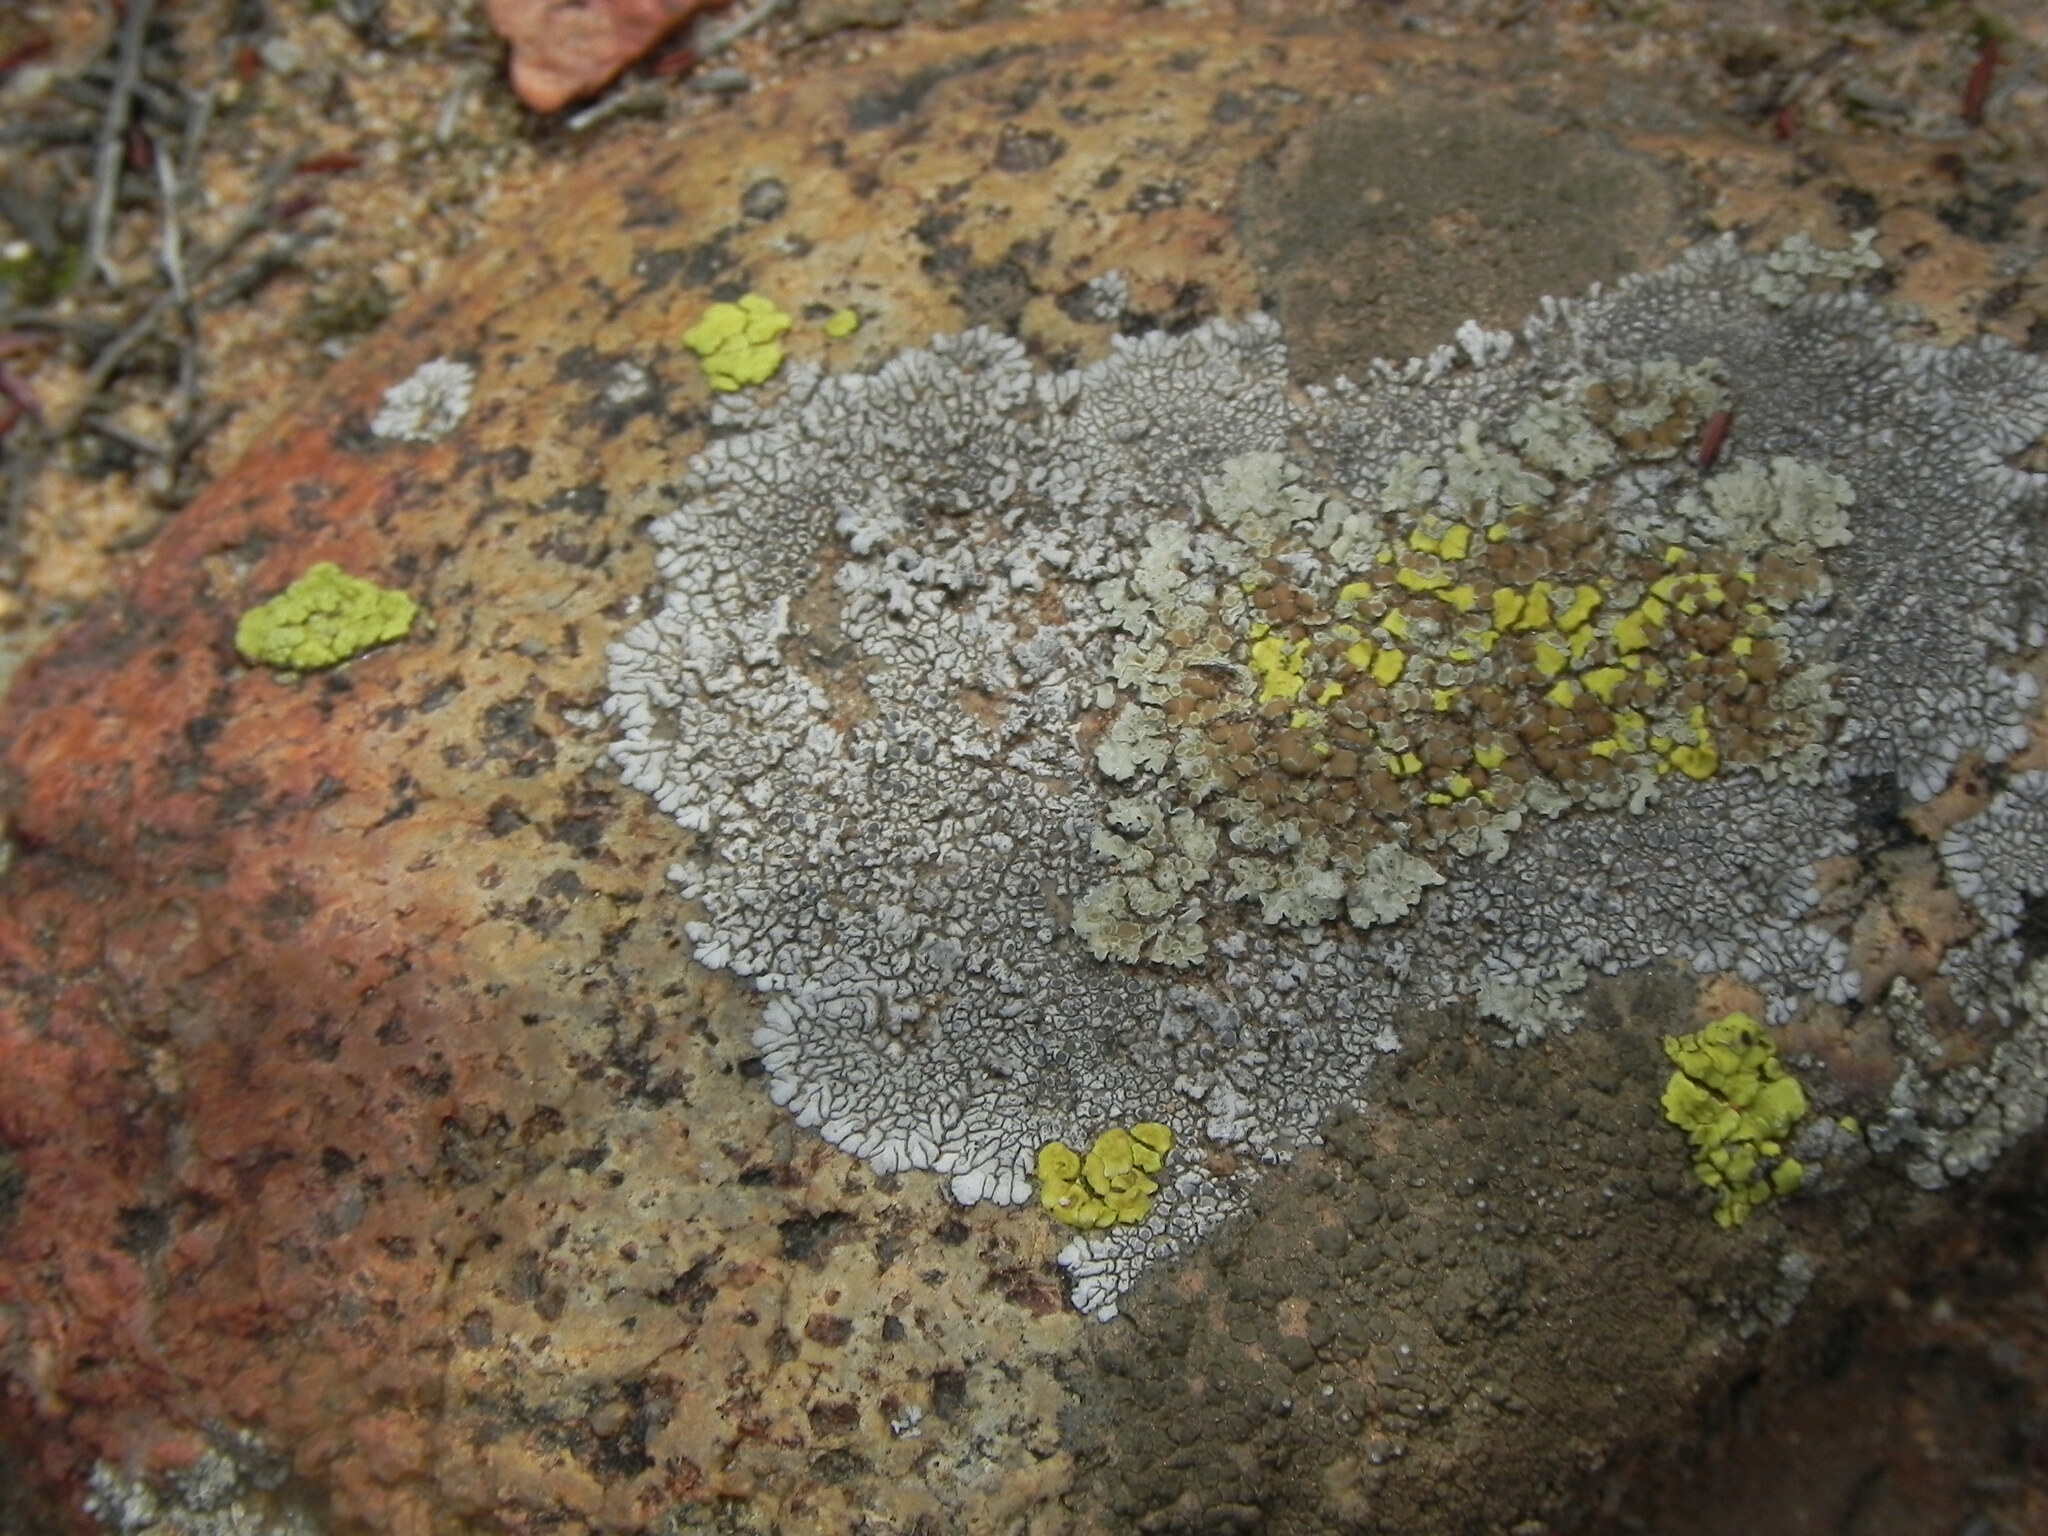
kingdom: Fungi
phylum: Ascomycota
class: Lecanoromycetes
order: Caliciales
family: Caliciaceae
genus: Dimelaena
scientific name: Dimelaena radiata
